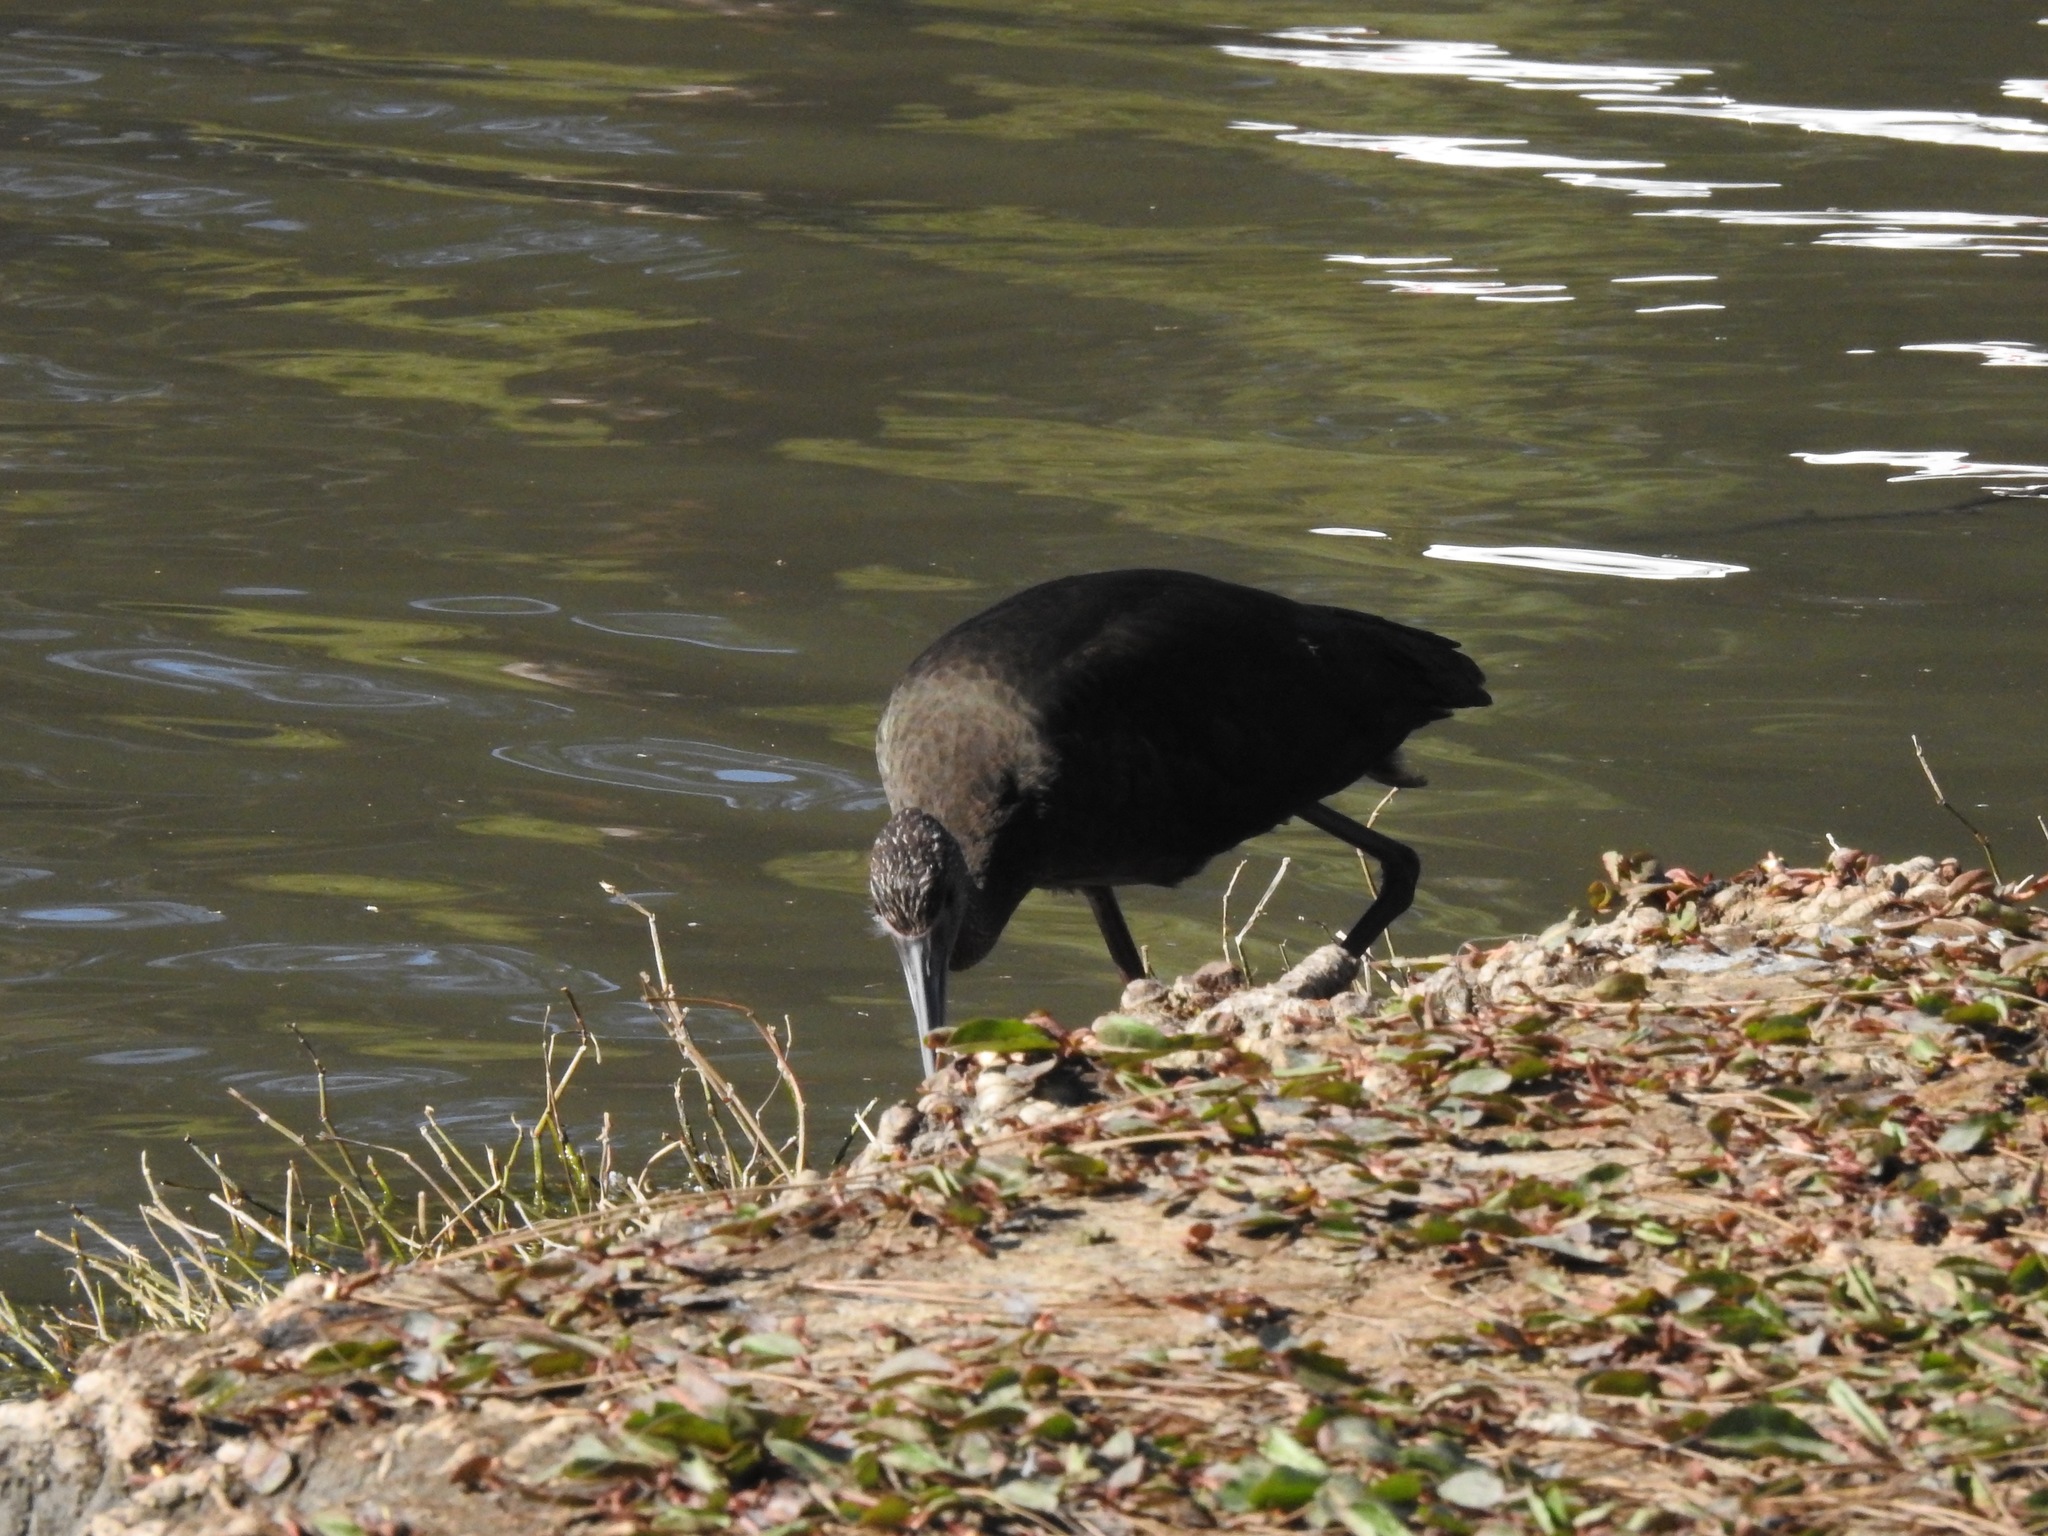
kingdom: Animalia
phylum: Chordata
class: Aves
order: Pelecaniformes
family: Threskiornithidae
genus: Plegadis
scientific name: Plegadis chihi
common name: White-faced ibis
